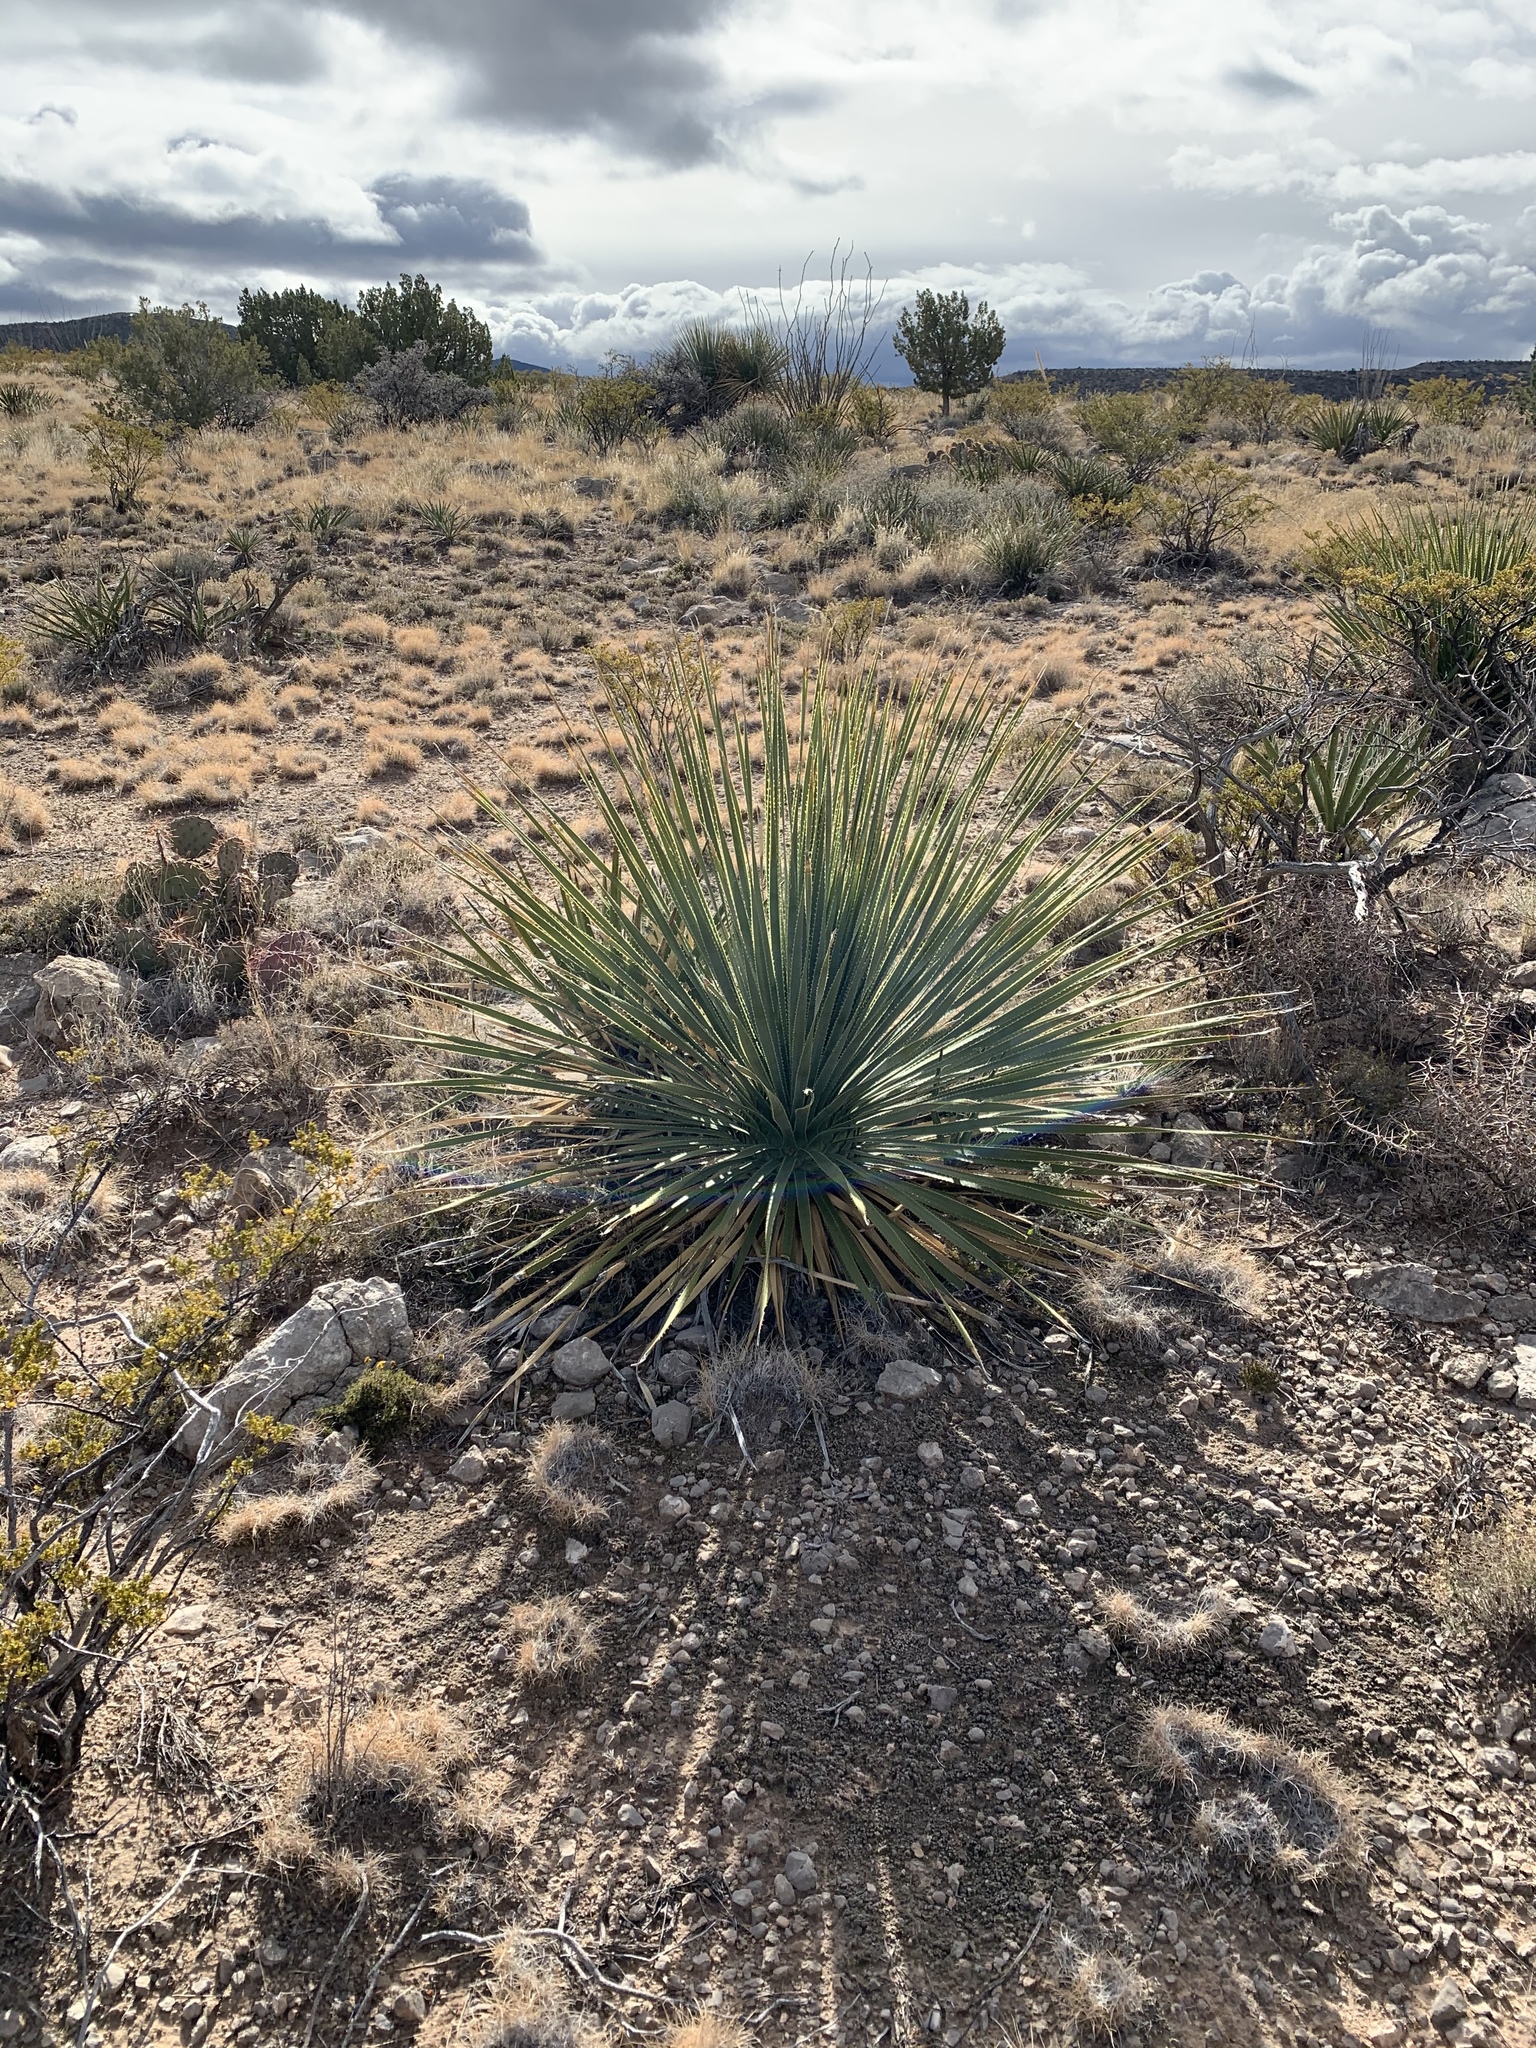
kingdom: Plantae
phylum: Tracheophyta
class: Liliopsida
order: Asparagales
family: Asparagaceae
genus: Dasylirion
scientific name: Dasylirion wheeleri
